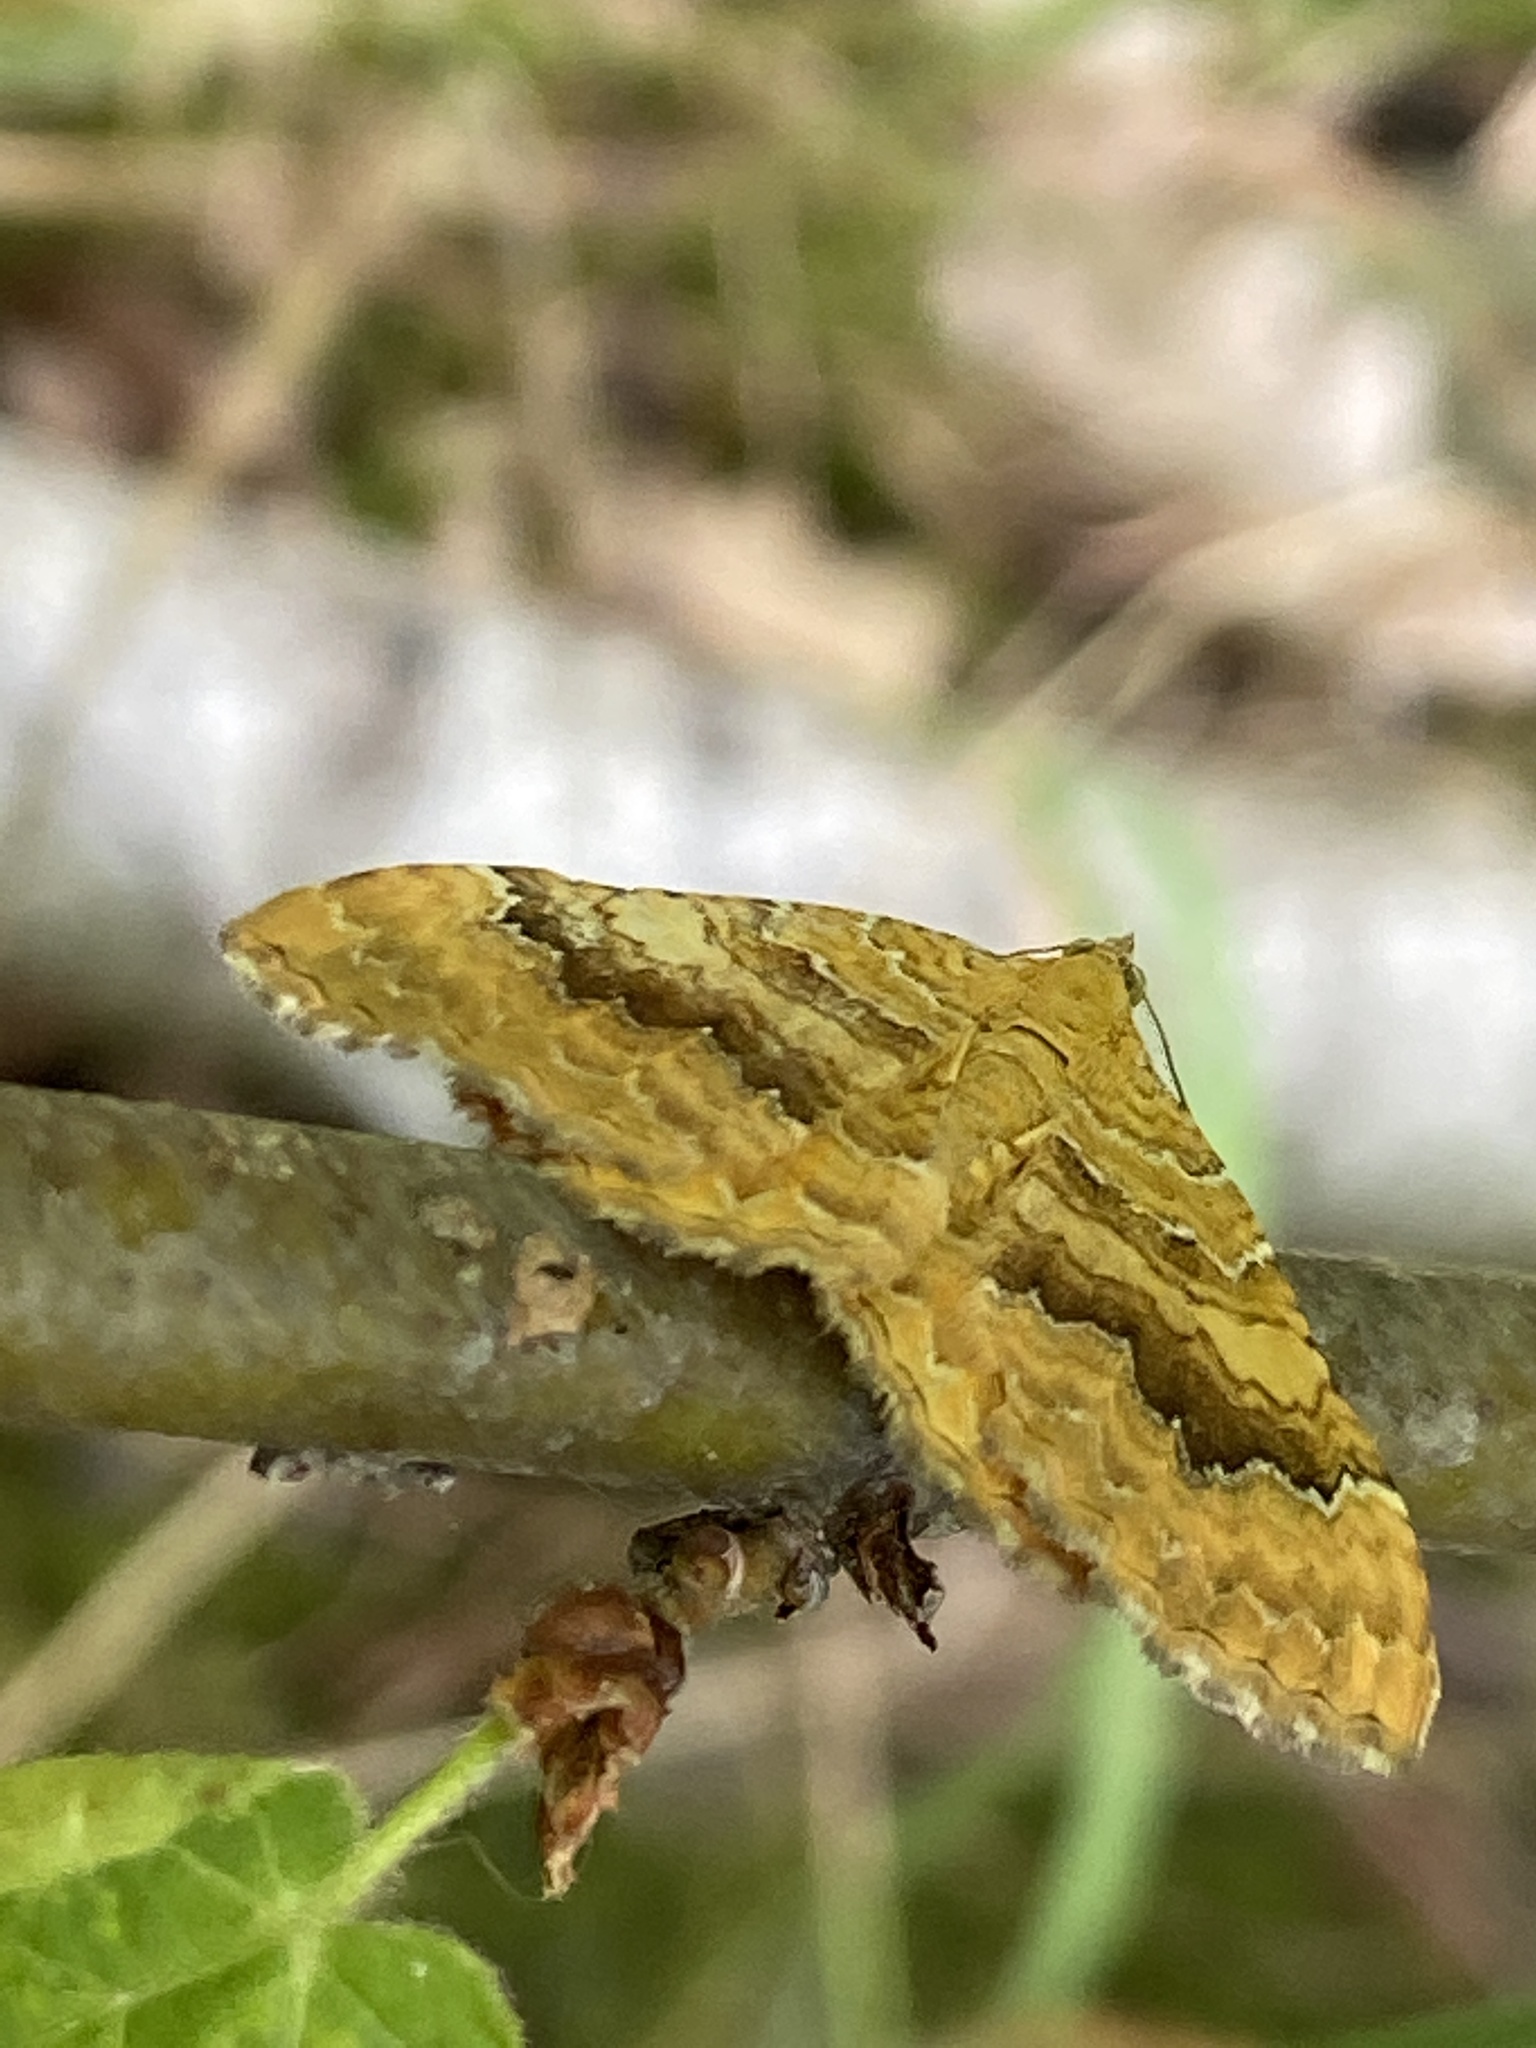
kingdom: Animalia
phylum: Arthropoda
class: Insecta
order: Lepidoptera
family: Geometridae
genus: Camptogramma
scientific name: Camptogramma bilineata
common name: Yellow shell
